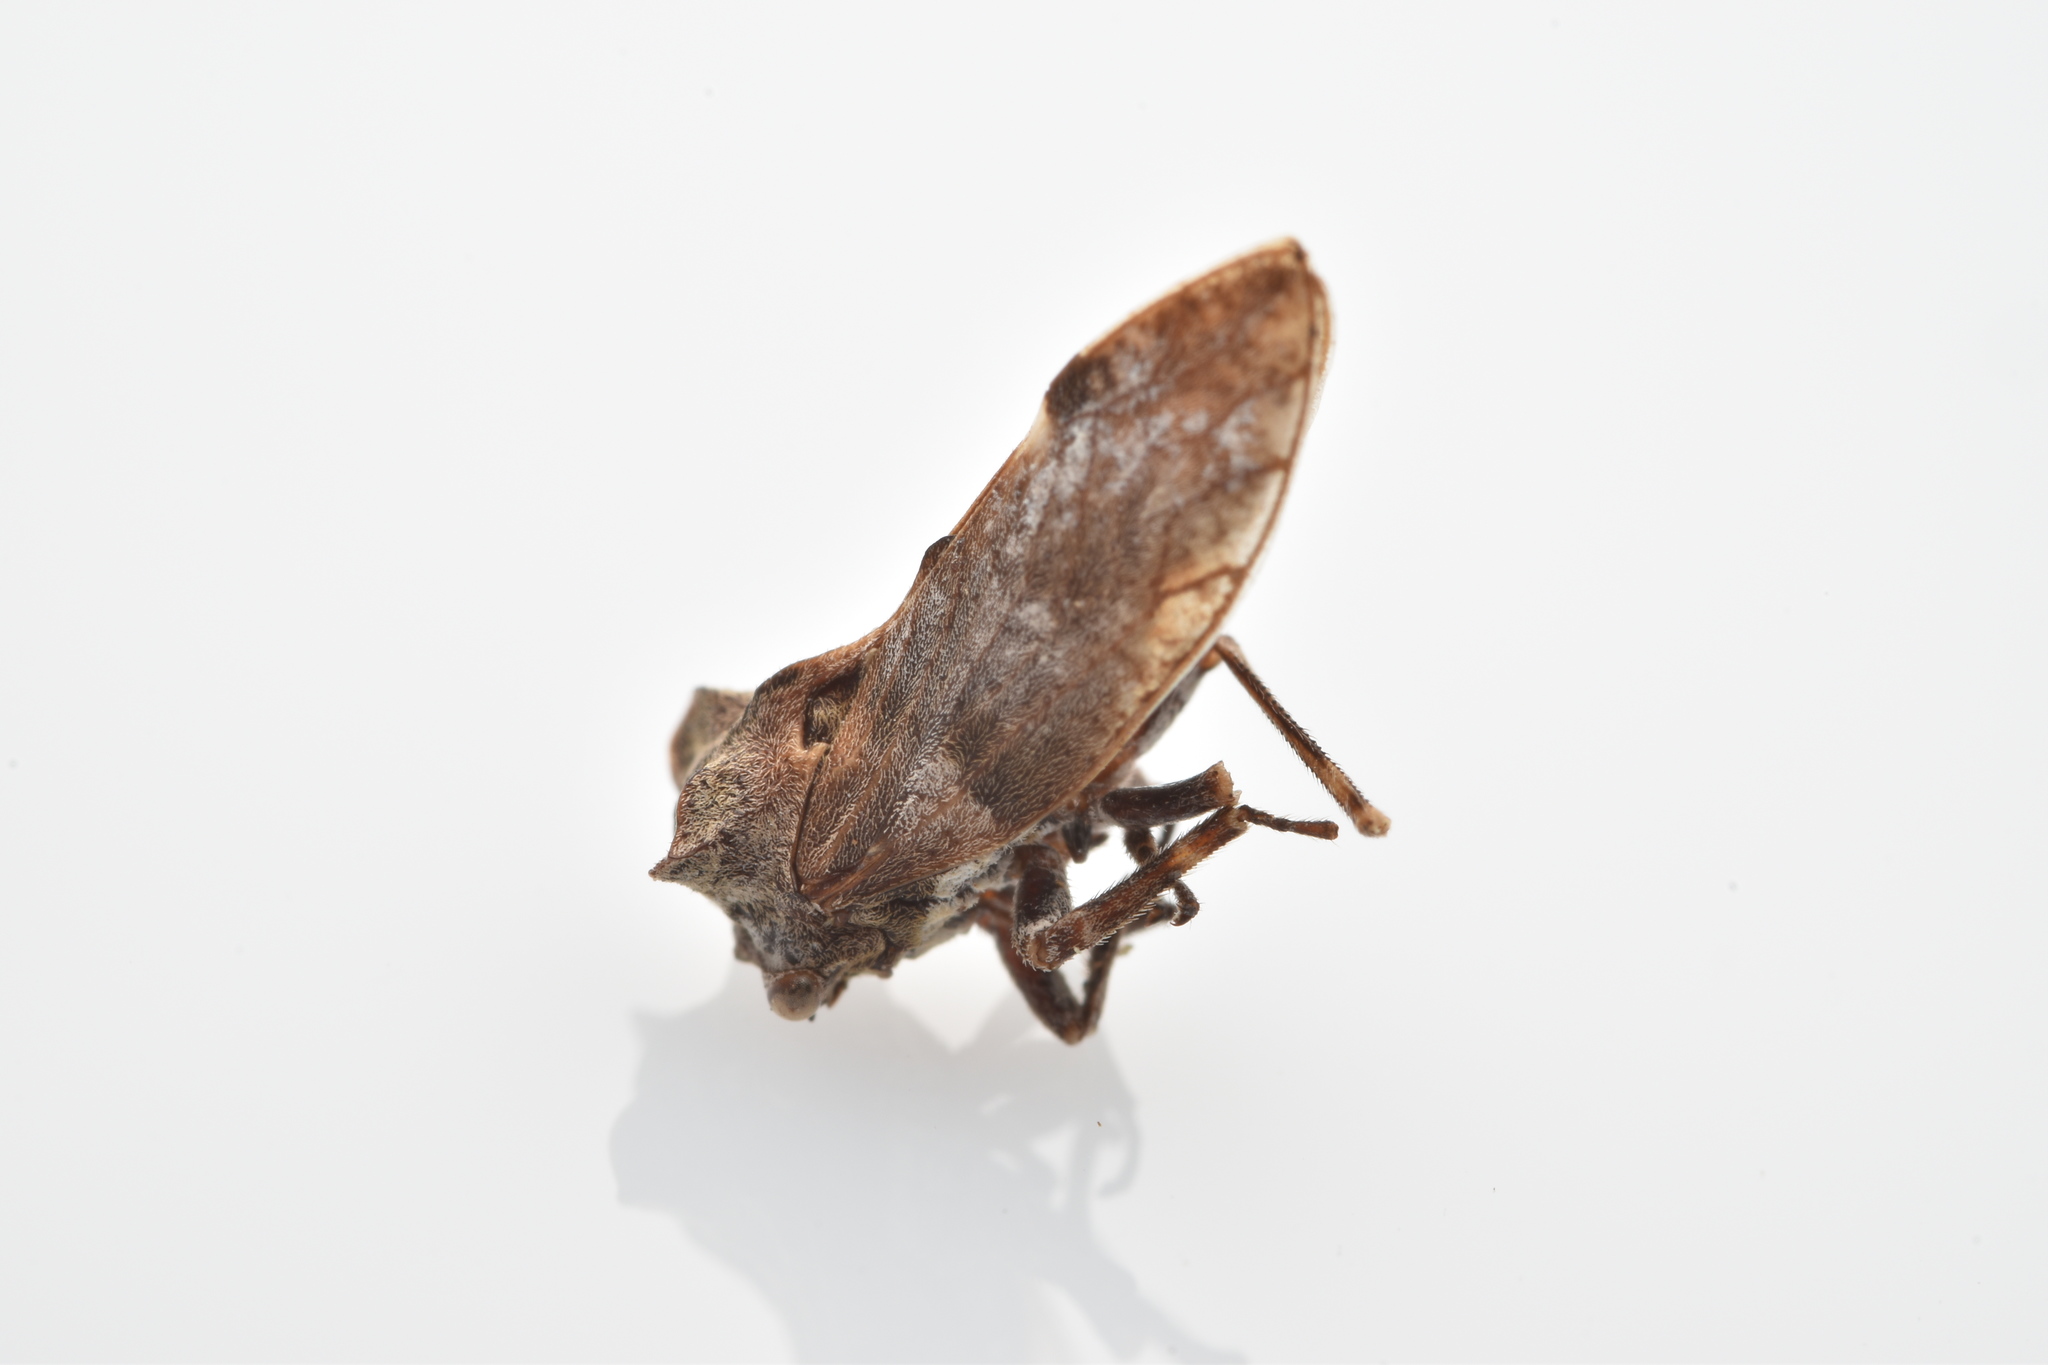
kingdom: Animalia
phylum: Arthropoda
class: Insecta
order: Hemiptera
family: Membracidae
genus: Microcentrus
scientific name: Microcentrus perdita
